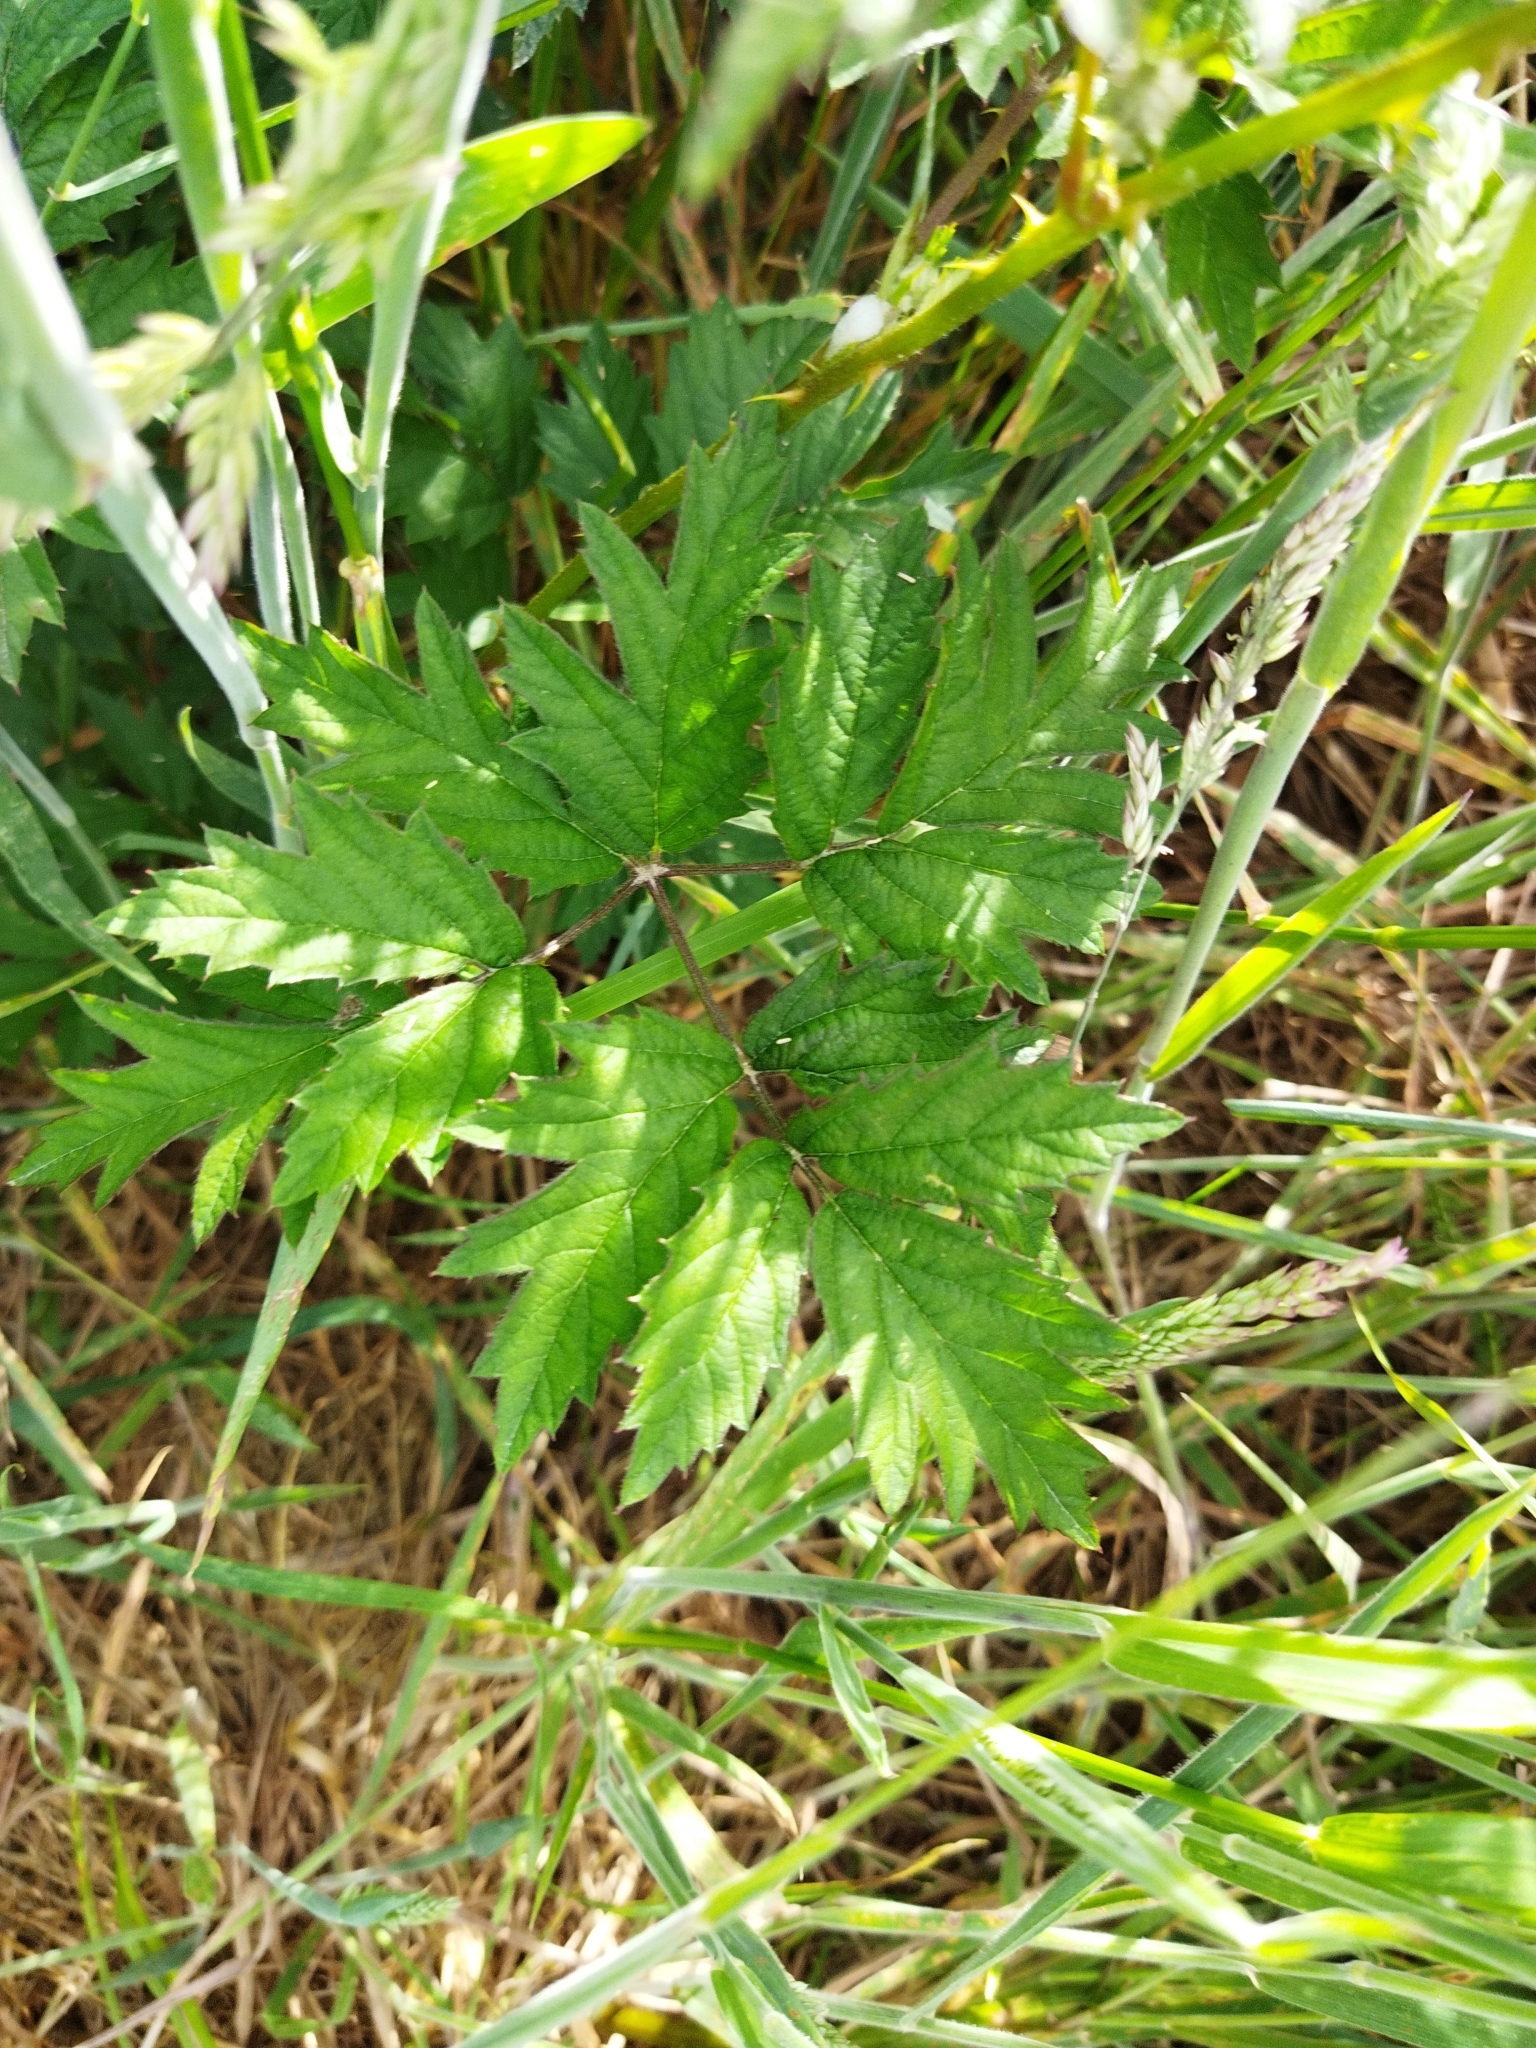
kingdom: Plantae
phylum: Tracheophyta
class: Magnoliopsida
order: Rosales
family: Rosaceae
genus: Rubus
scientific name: Rubus laciniatus
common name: Evergreen blackberry
